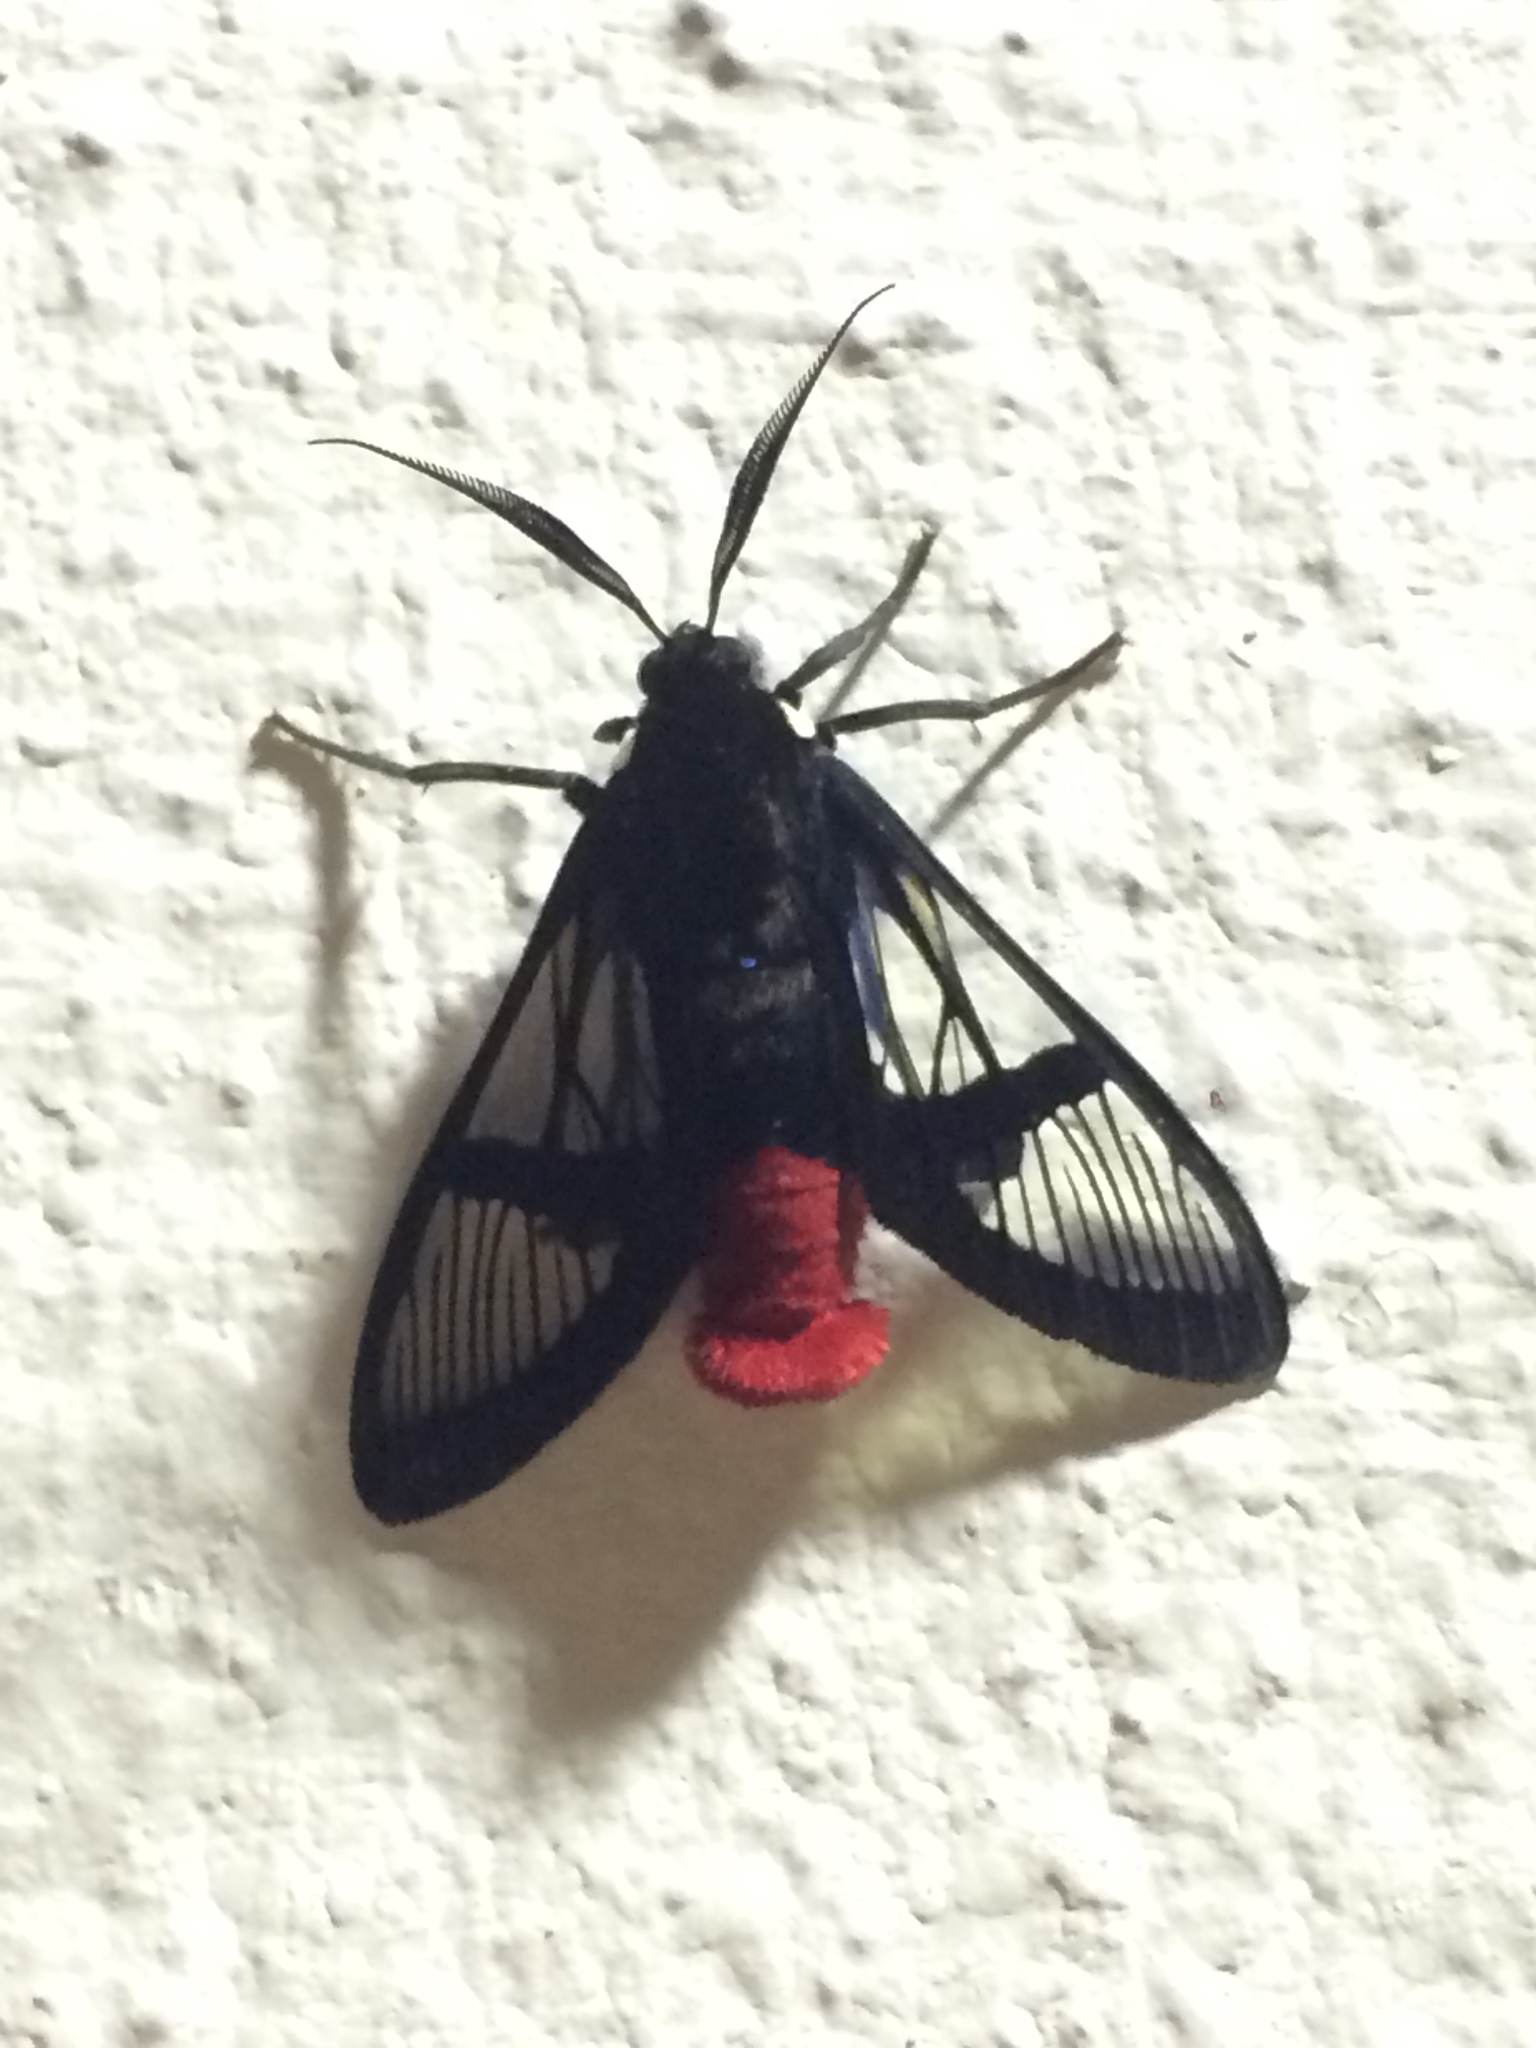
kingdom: Animalia
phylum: Arthropoda
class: Insecta
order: Lepidoptera
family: Erebidae
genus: Homoeocera
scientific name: Homoeocera lophocera
